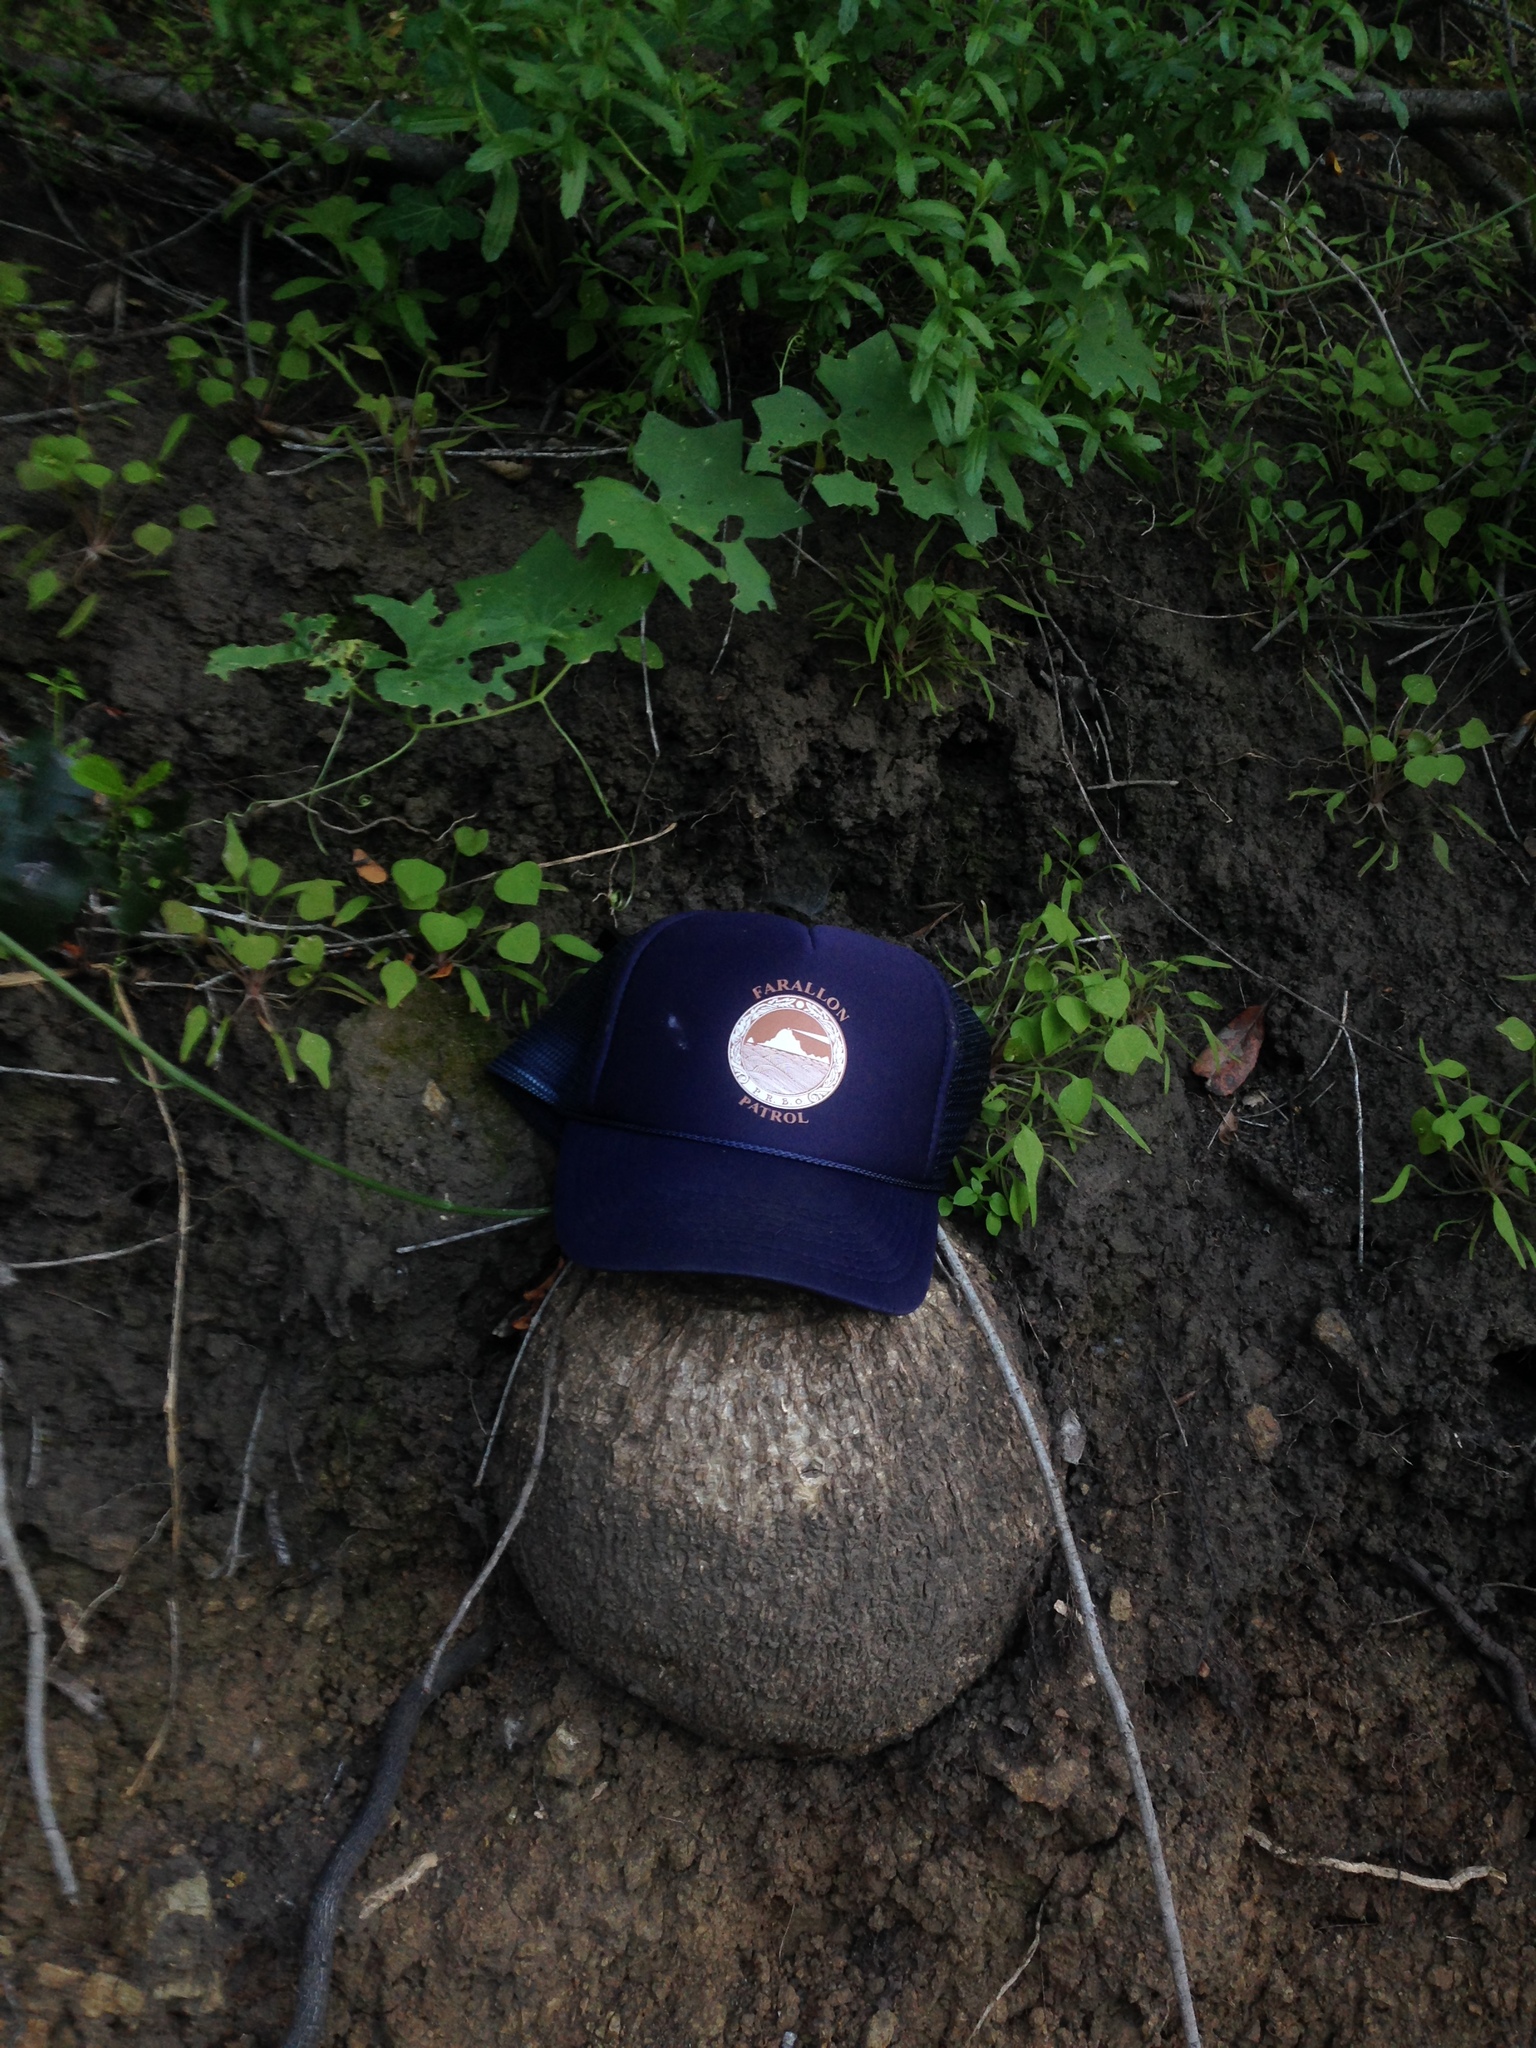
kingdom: Plantae
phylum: Tracheophyta
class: Magnoliopsida
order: Cucurbitales
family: Cucurbitaceae
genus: Marah
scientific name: Marah macrocarpa
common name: Cucamonga manroot
